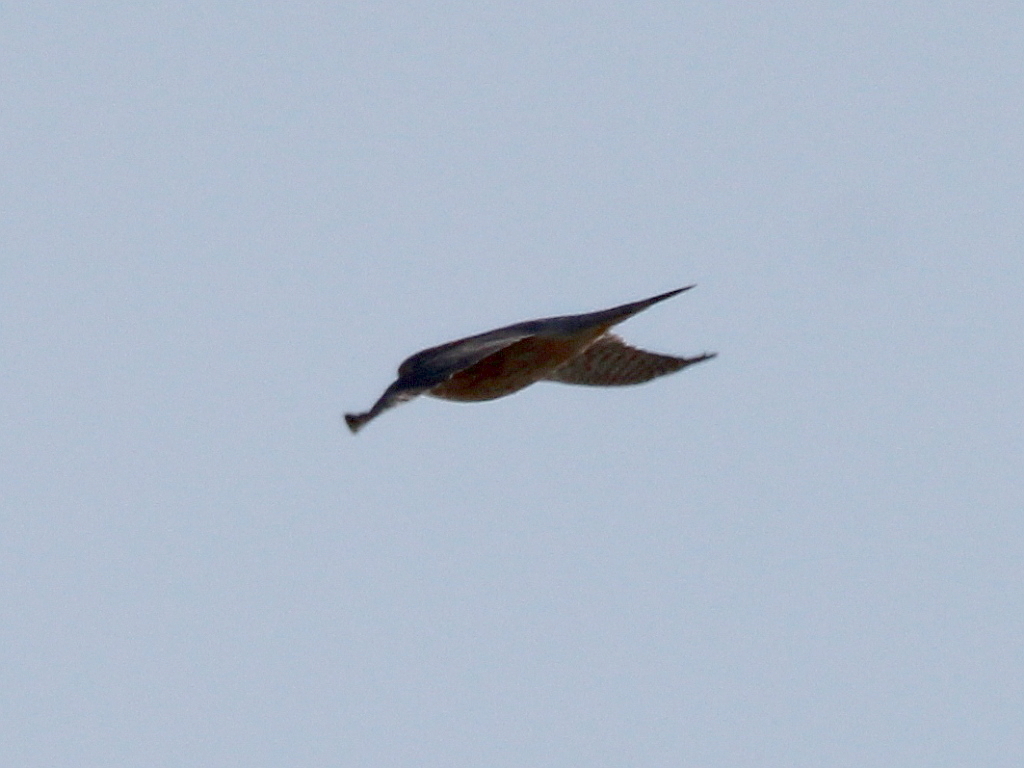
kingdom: Animalia
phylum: Chordata
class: Aves
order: Falconiformes
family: Falconidae
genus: Falco
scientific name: Falco columbarius
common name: Merlin
